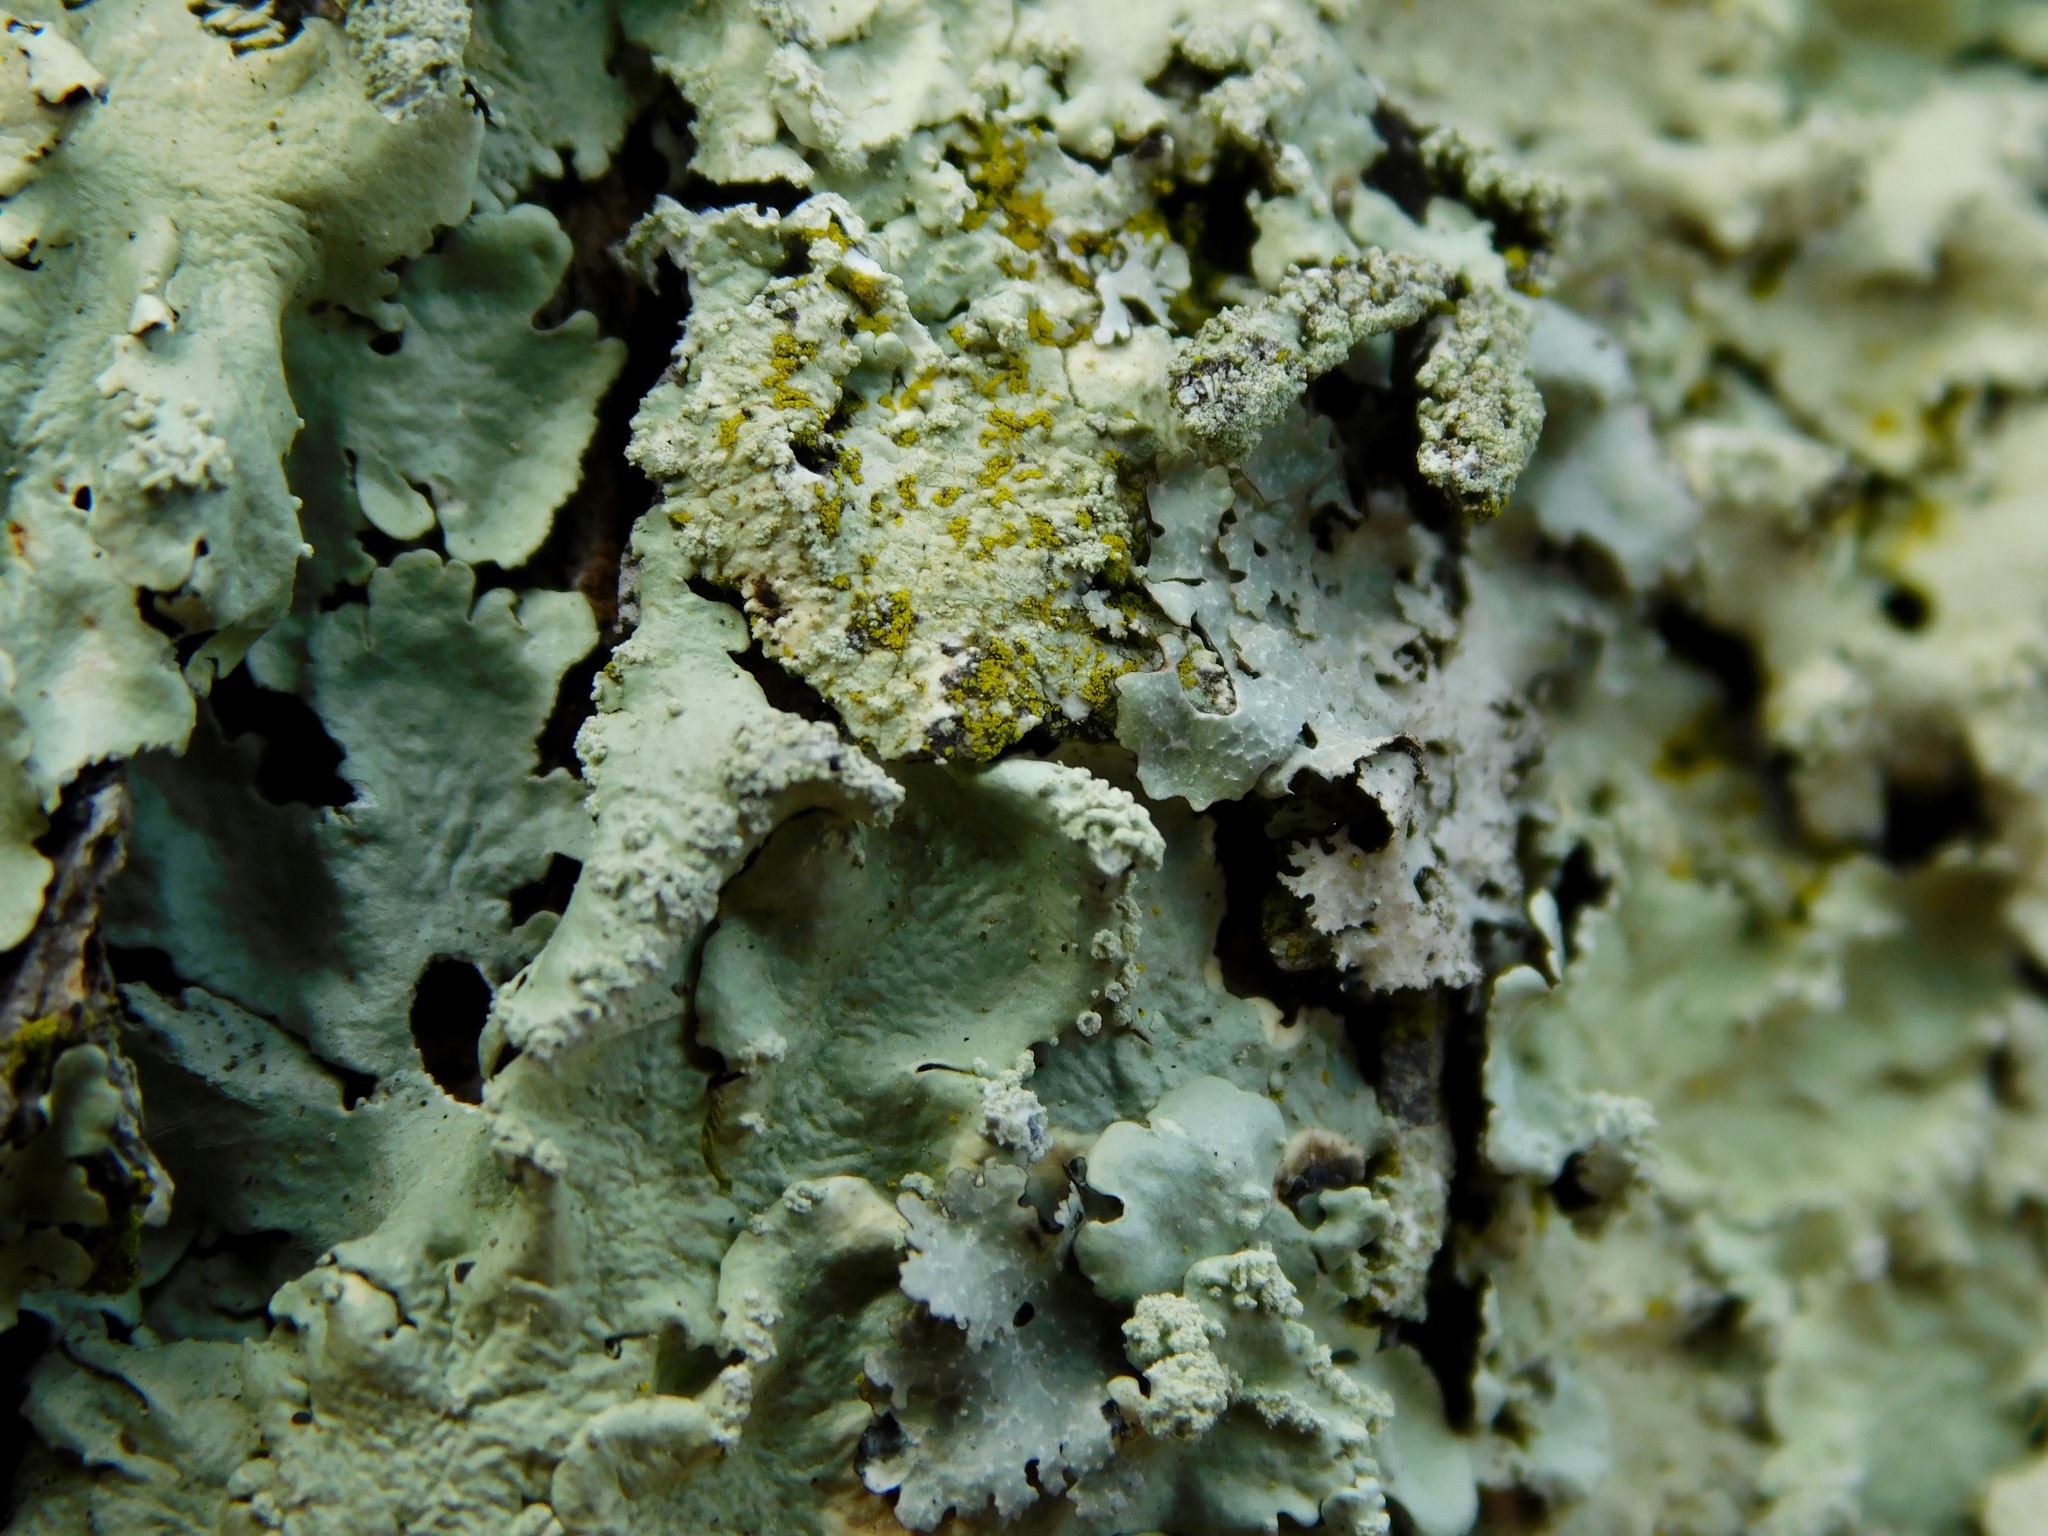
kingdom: Fungi
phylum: Basidiomycota
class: Agaricomycetes
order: Cantharellales
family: Hydnaceae
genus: Burgella
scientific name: Burgella flavoparmeliae
